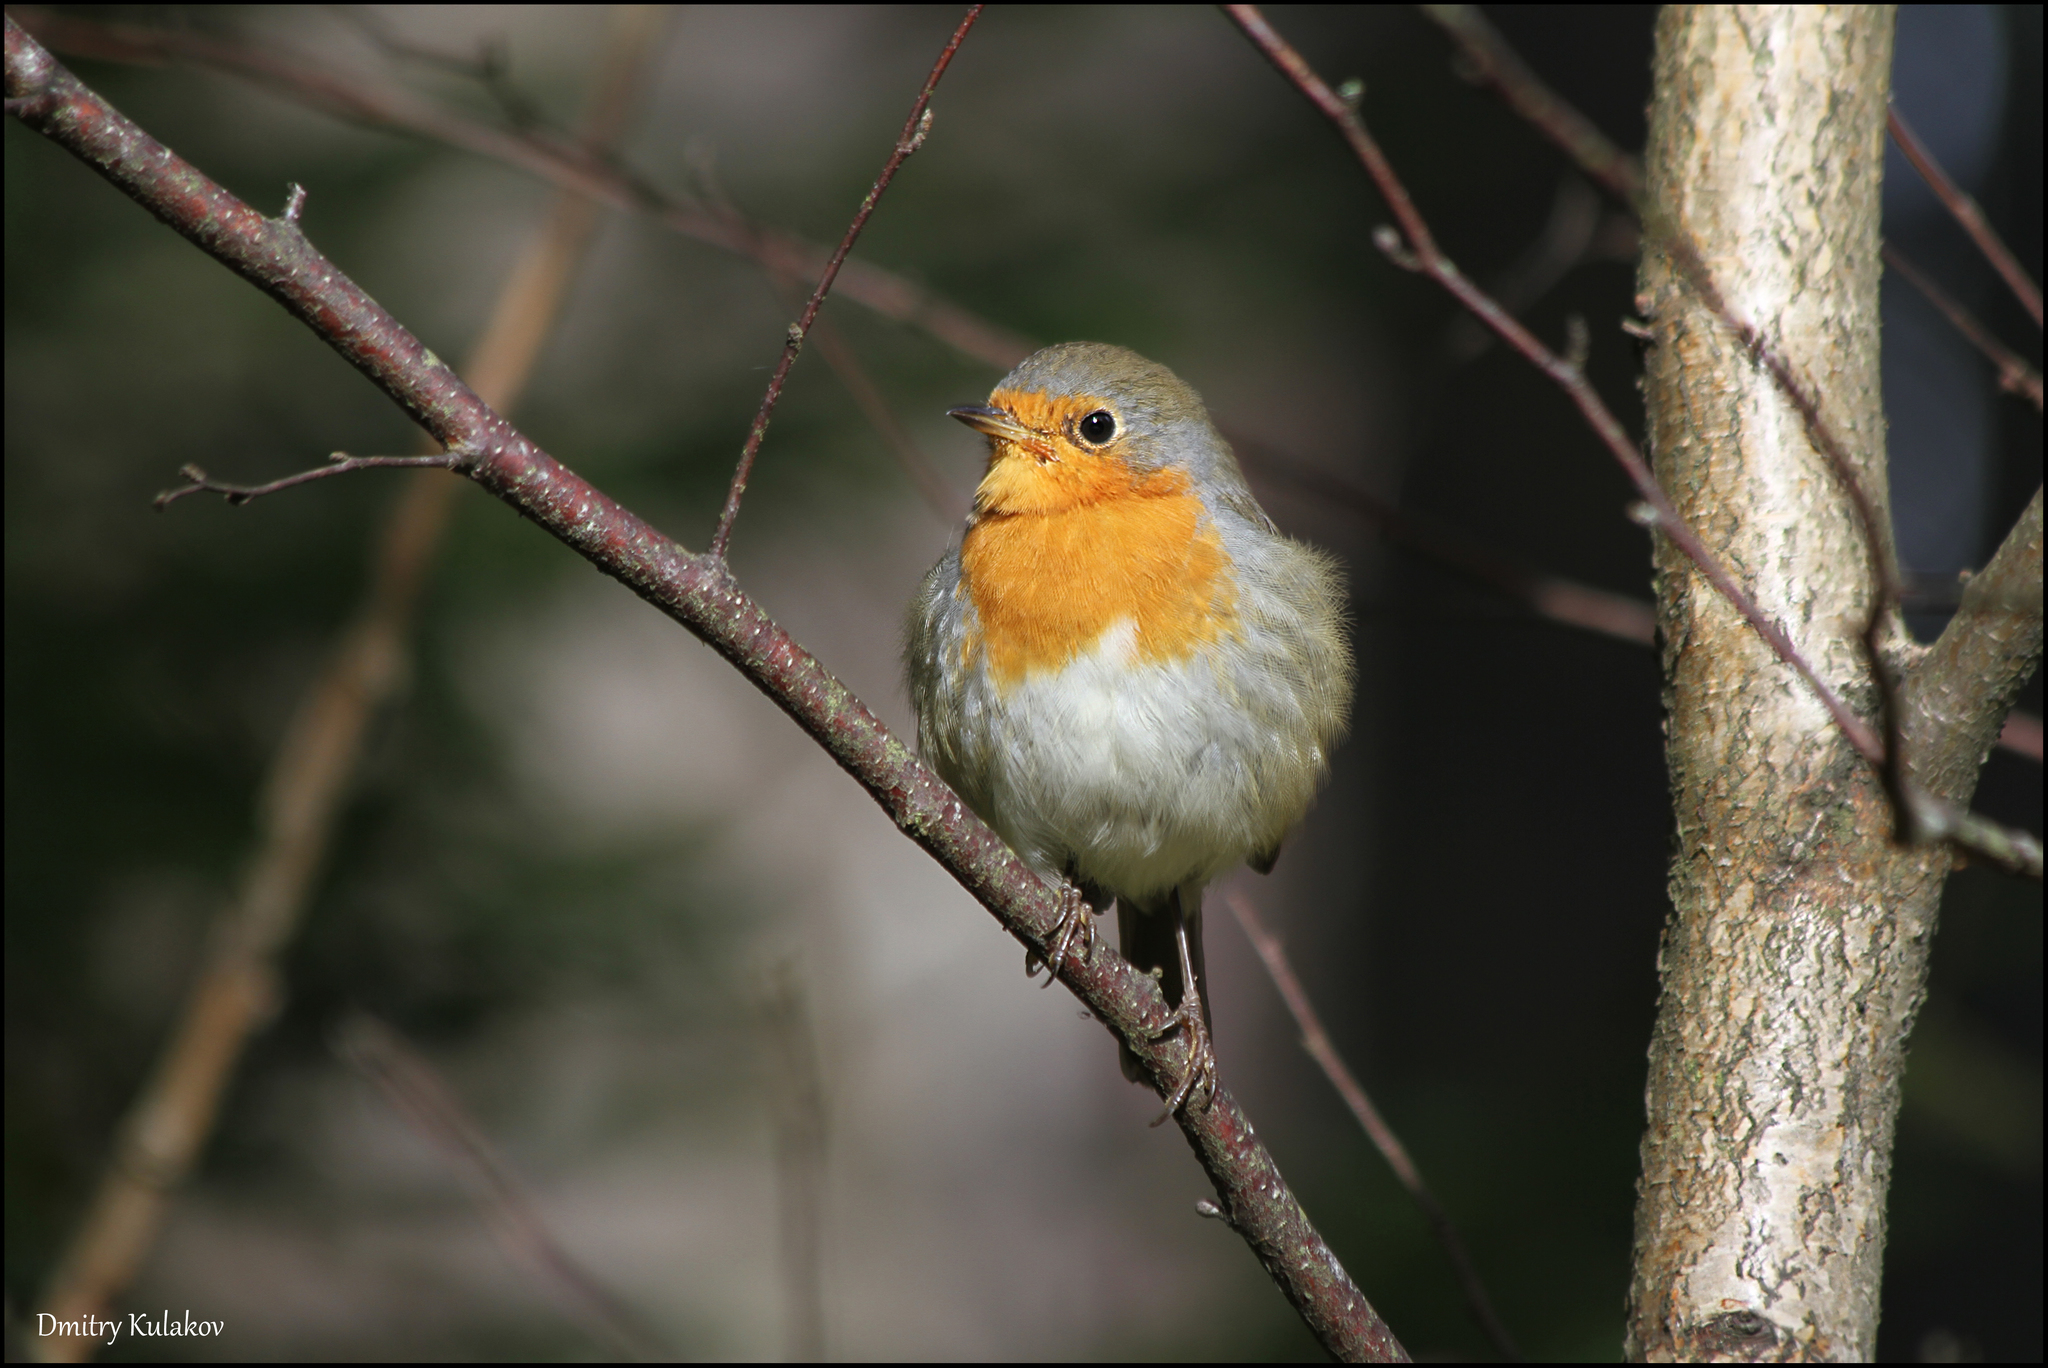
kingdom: Animalia
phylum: Chordata
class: Aves
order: Passeriformes
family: Muscicapidae
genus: Erithacus
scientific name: Erithacus rubecula
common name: European robin
